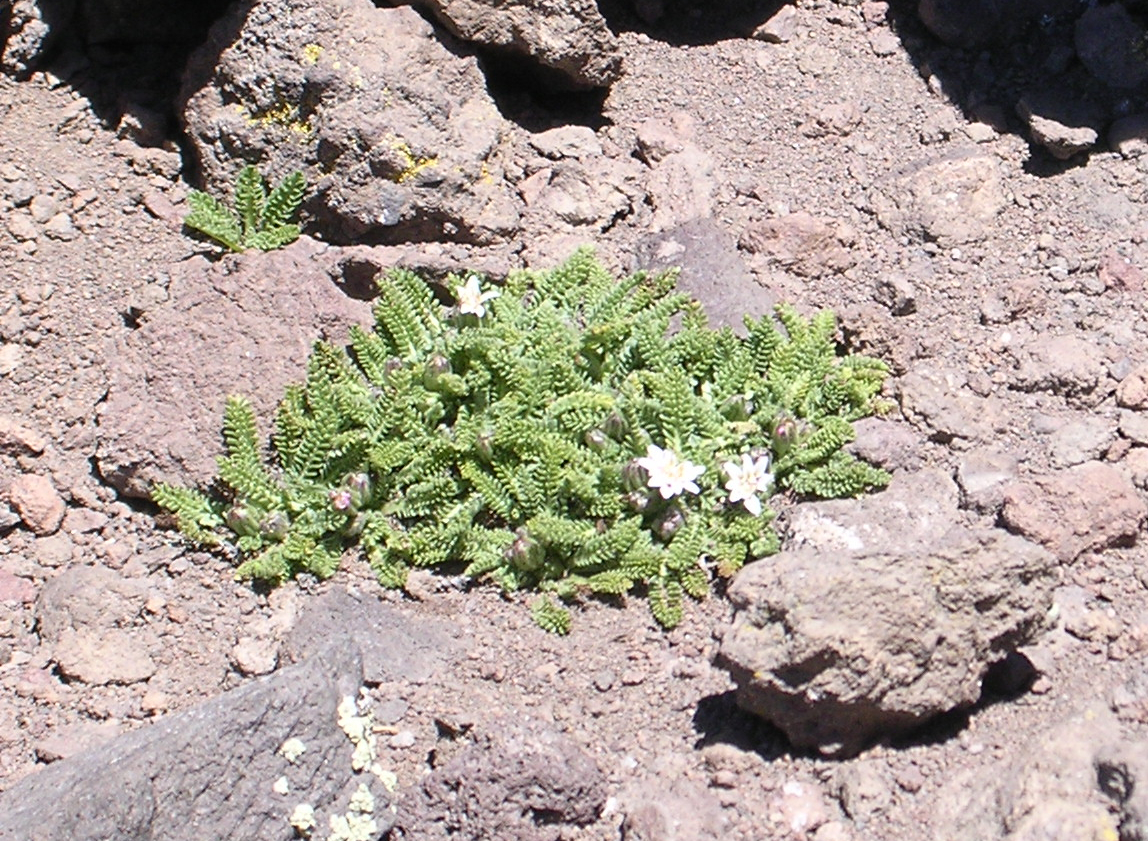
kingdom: Plantae
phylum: Tracheophyta
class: Magnoliopsida
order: Asterales
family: Asteraceae
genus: Leucheria
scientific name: Leucheria scrobiculata
